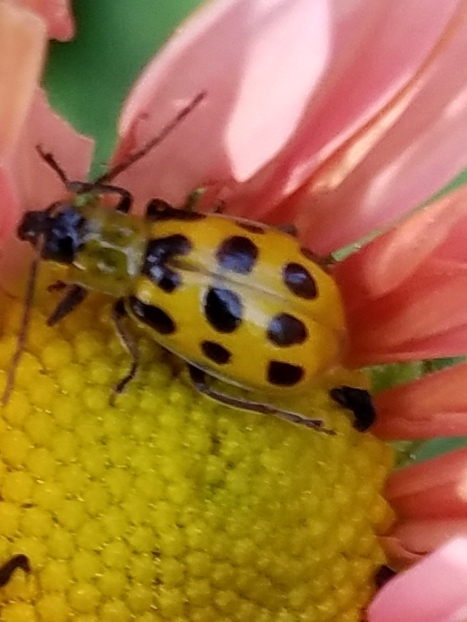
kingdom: Animalia
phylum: Arthropoda
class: Insecta
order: Coleoptera
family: Chrysomelidae
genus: Diabrotica
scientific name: Diabrotica undecimpunctata
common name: Spotted cucumber beetle
